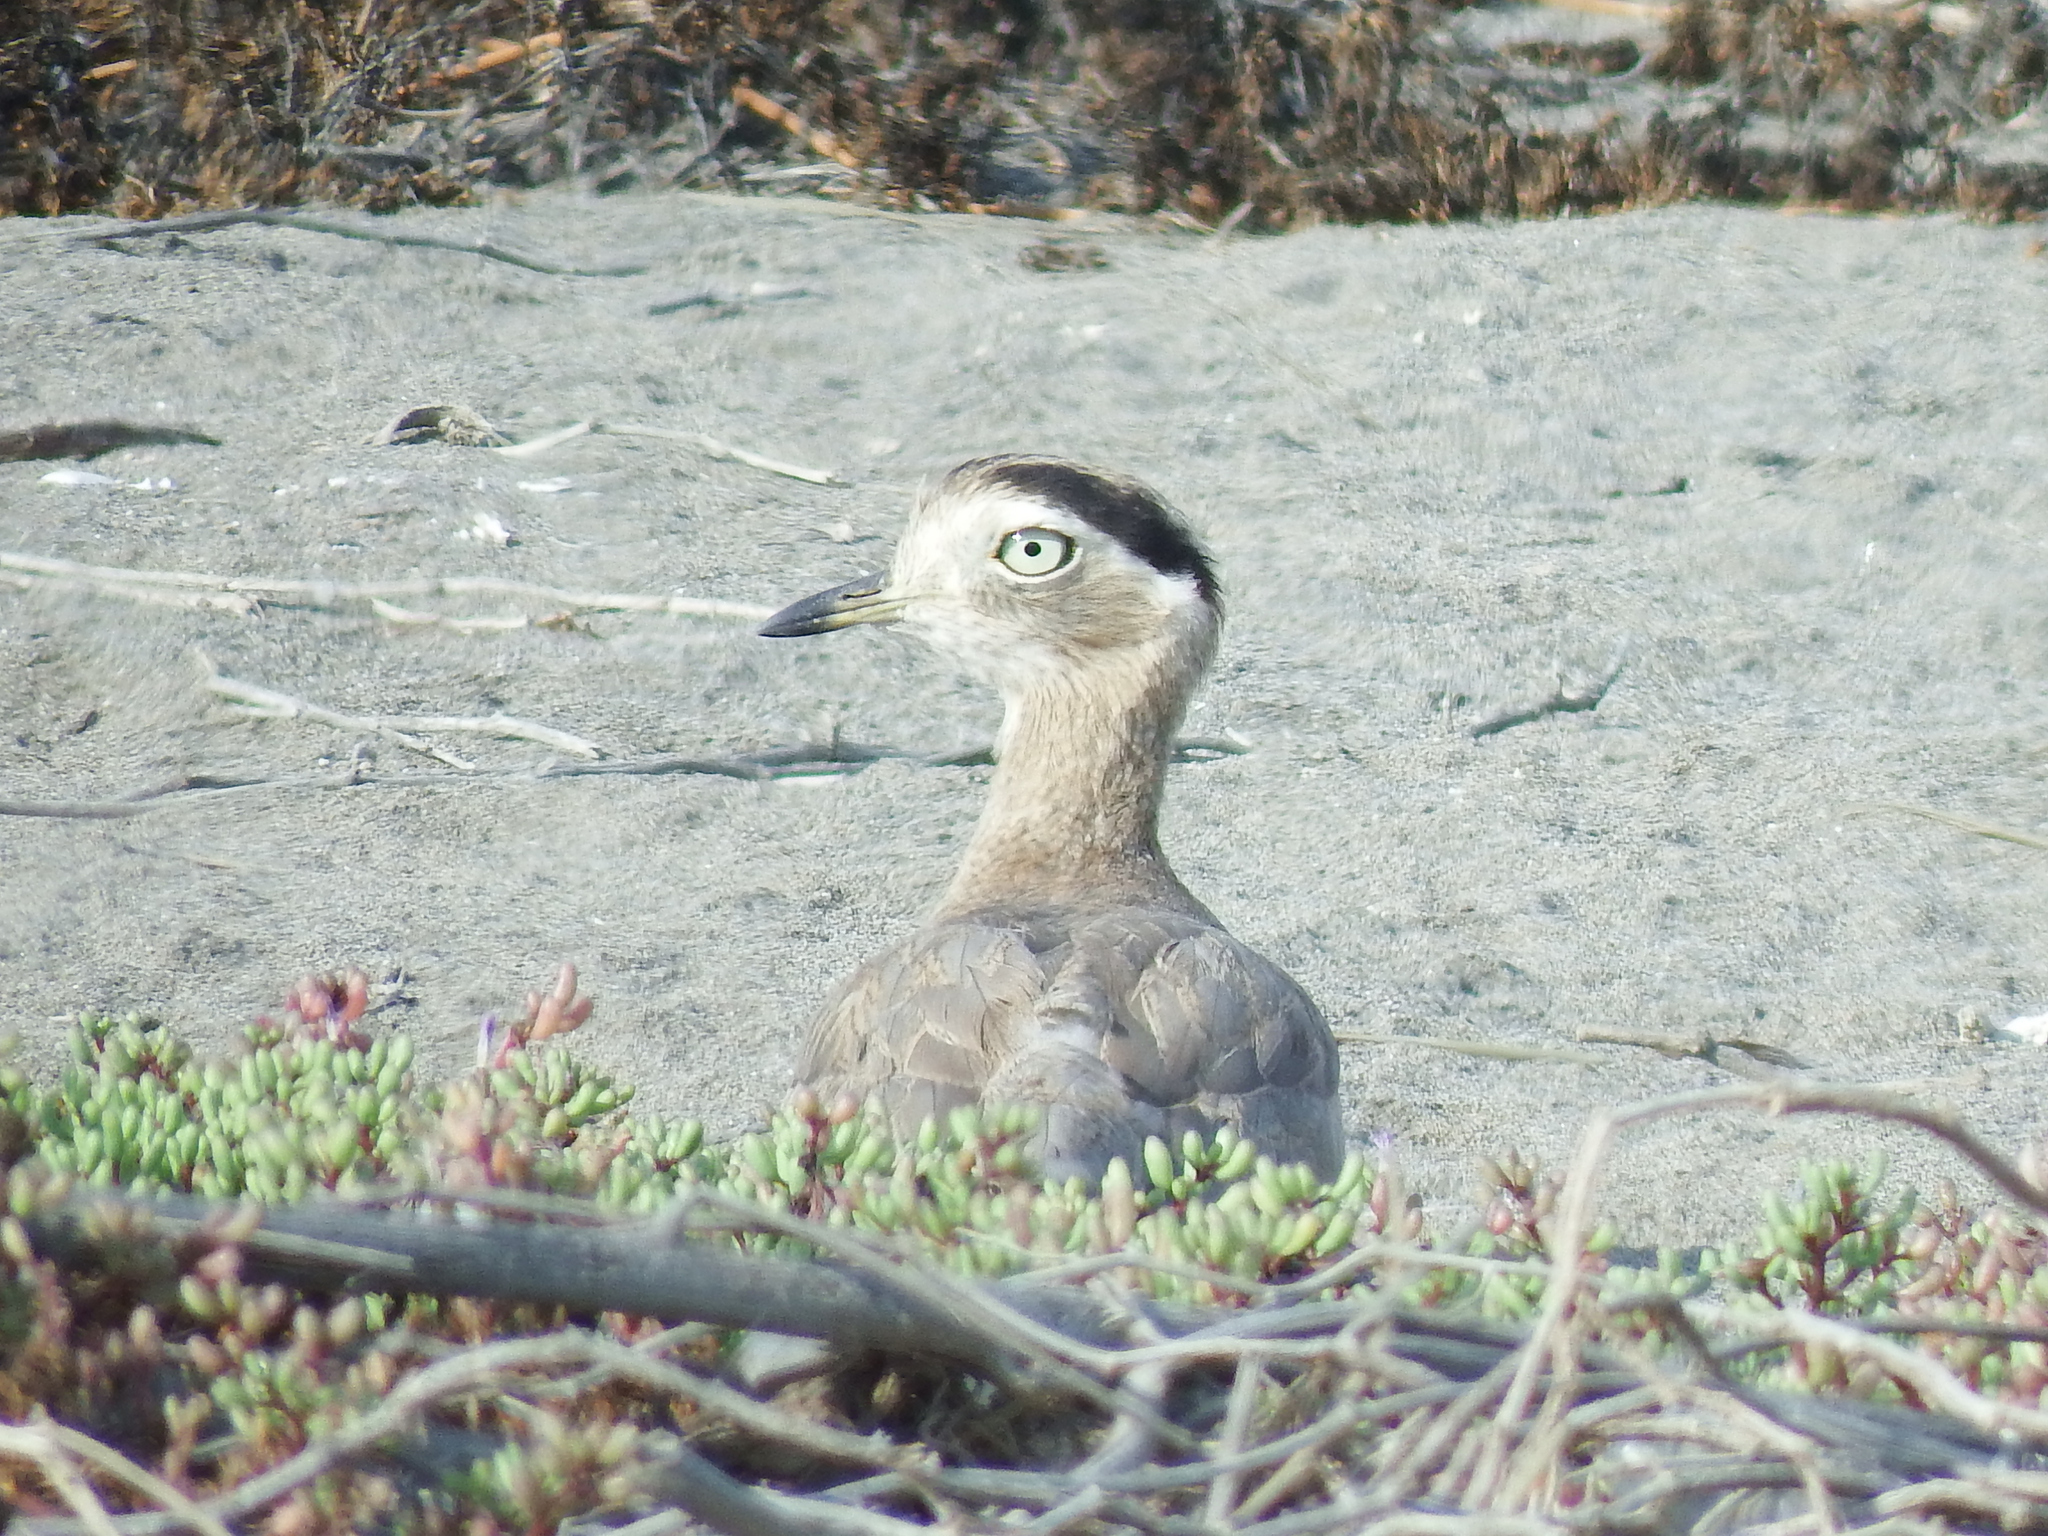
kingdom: Animalia
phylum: Chordata
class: Aves
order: Charadriiformes
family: Burhinidae
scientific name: Burhinidae
